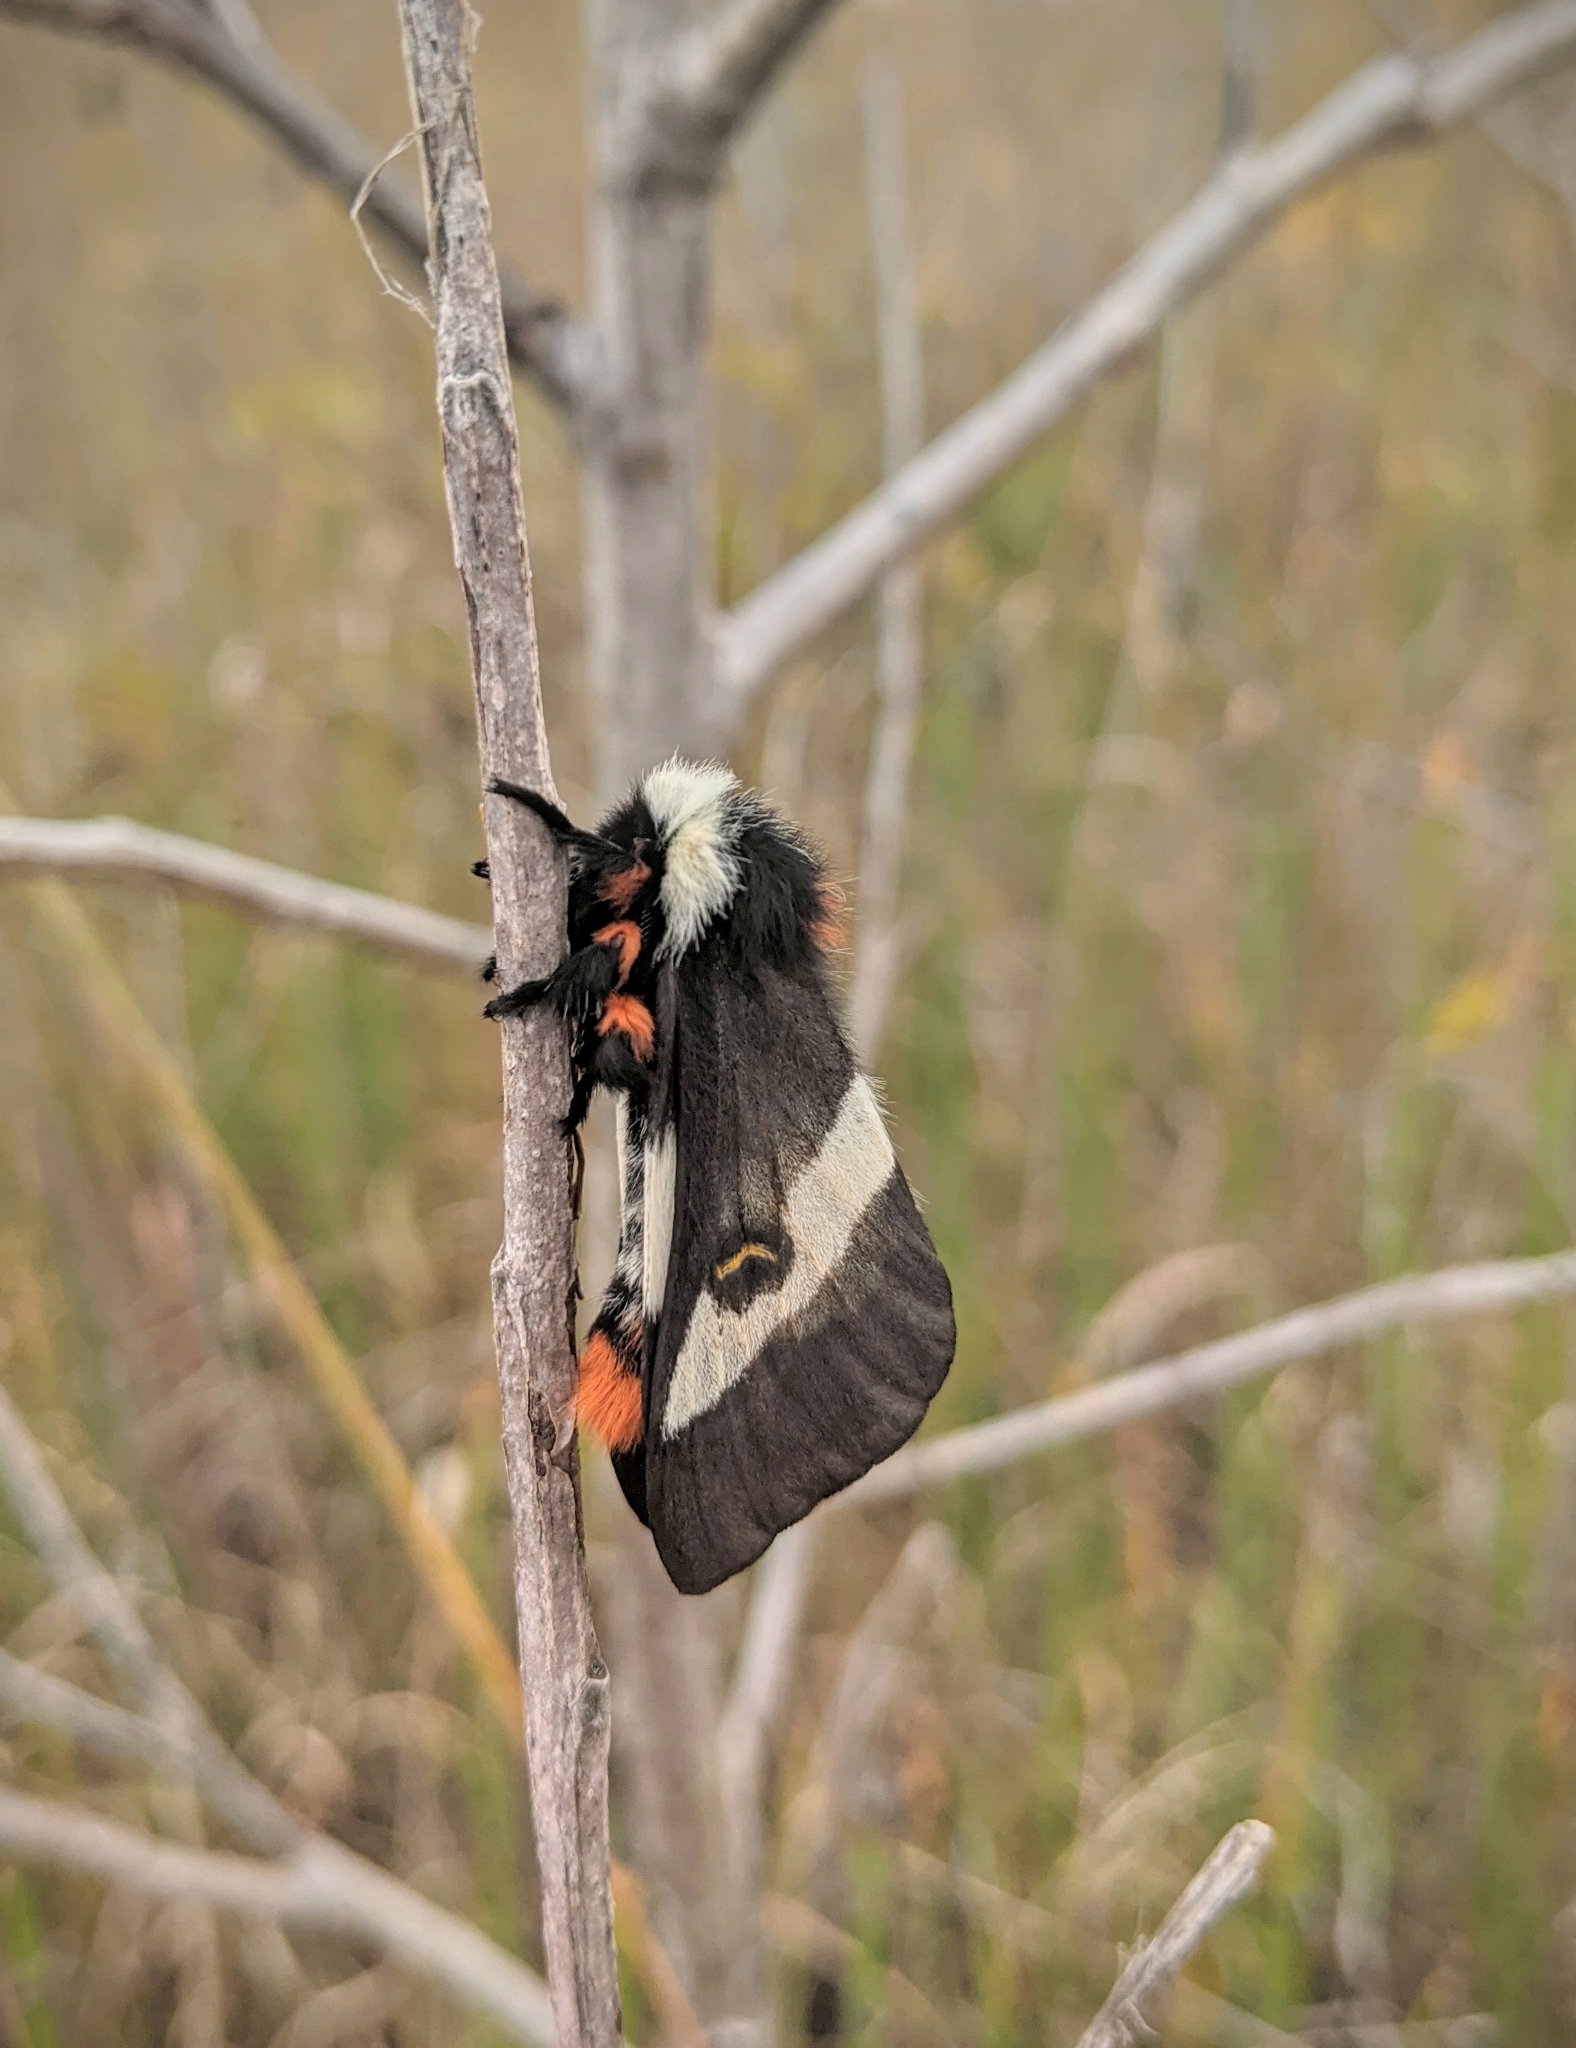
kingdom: Animalia
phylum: Arthropoda
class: Insecta
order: Lepidoptera
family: Saturniidae
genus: Hemileuca
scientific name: Hemileuca maia
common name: Eastern buckmoth
